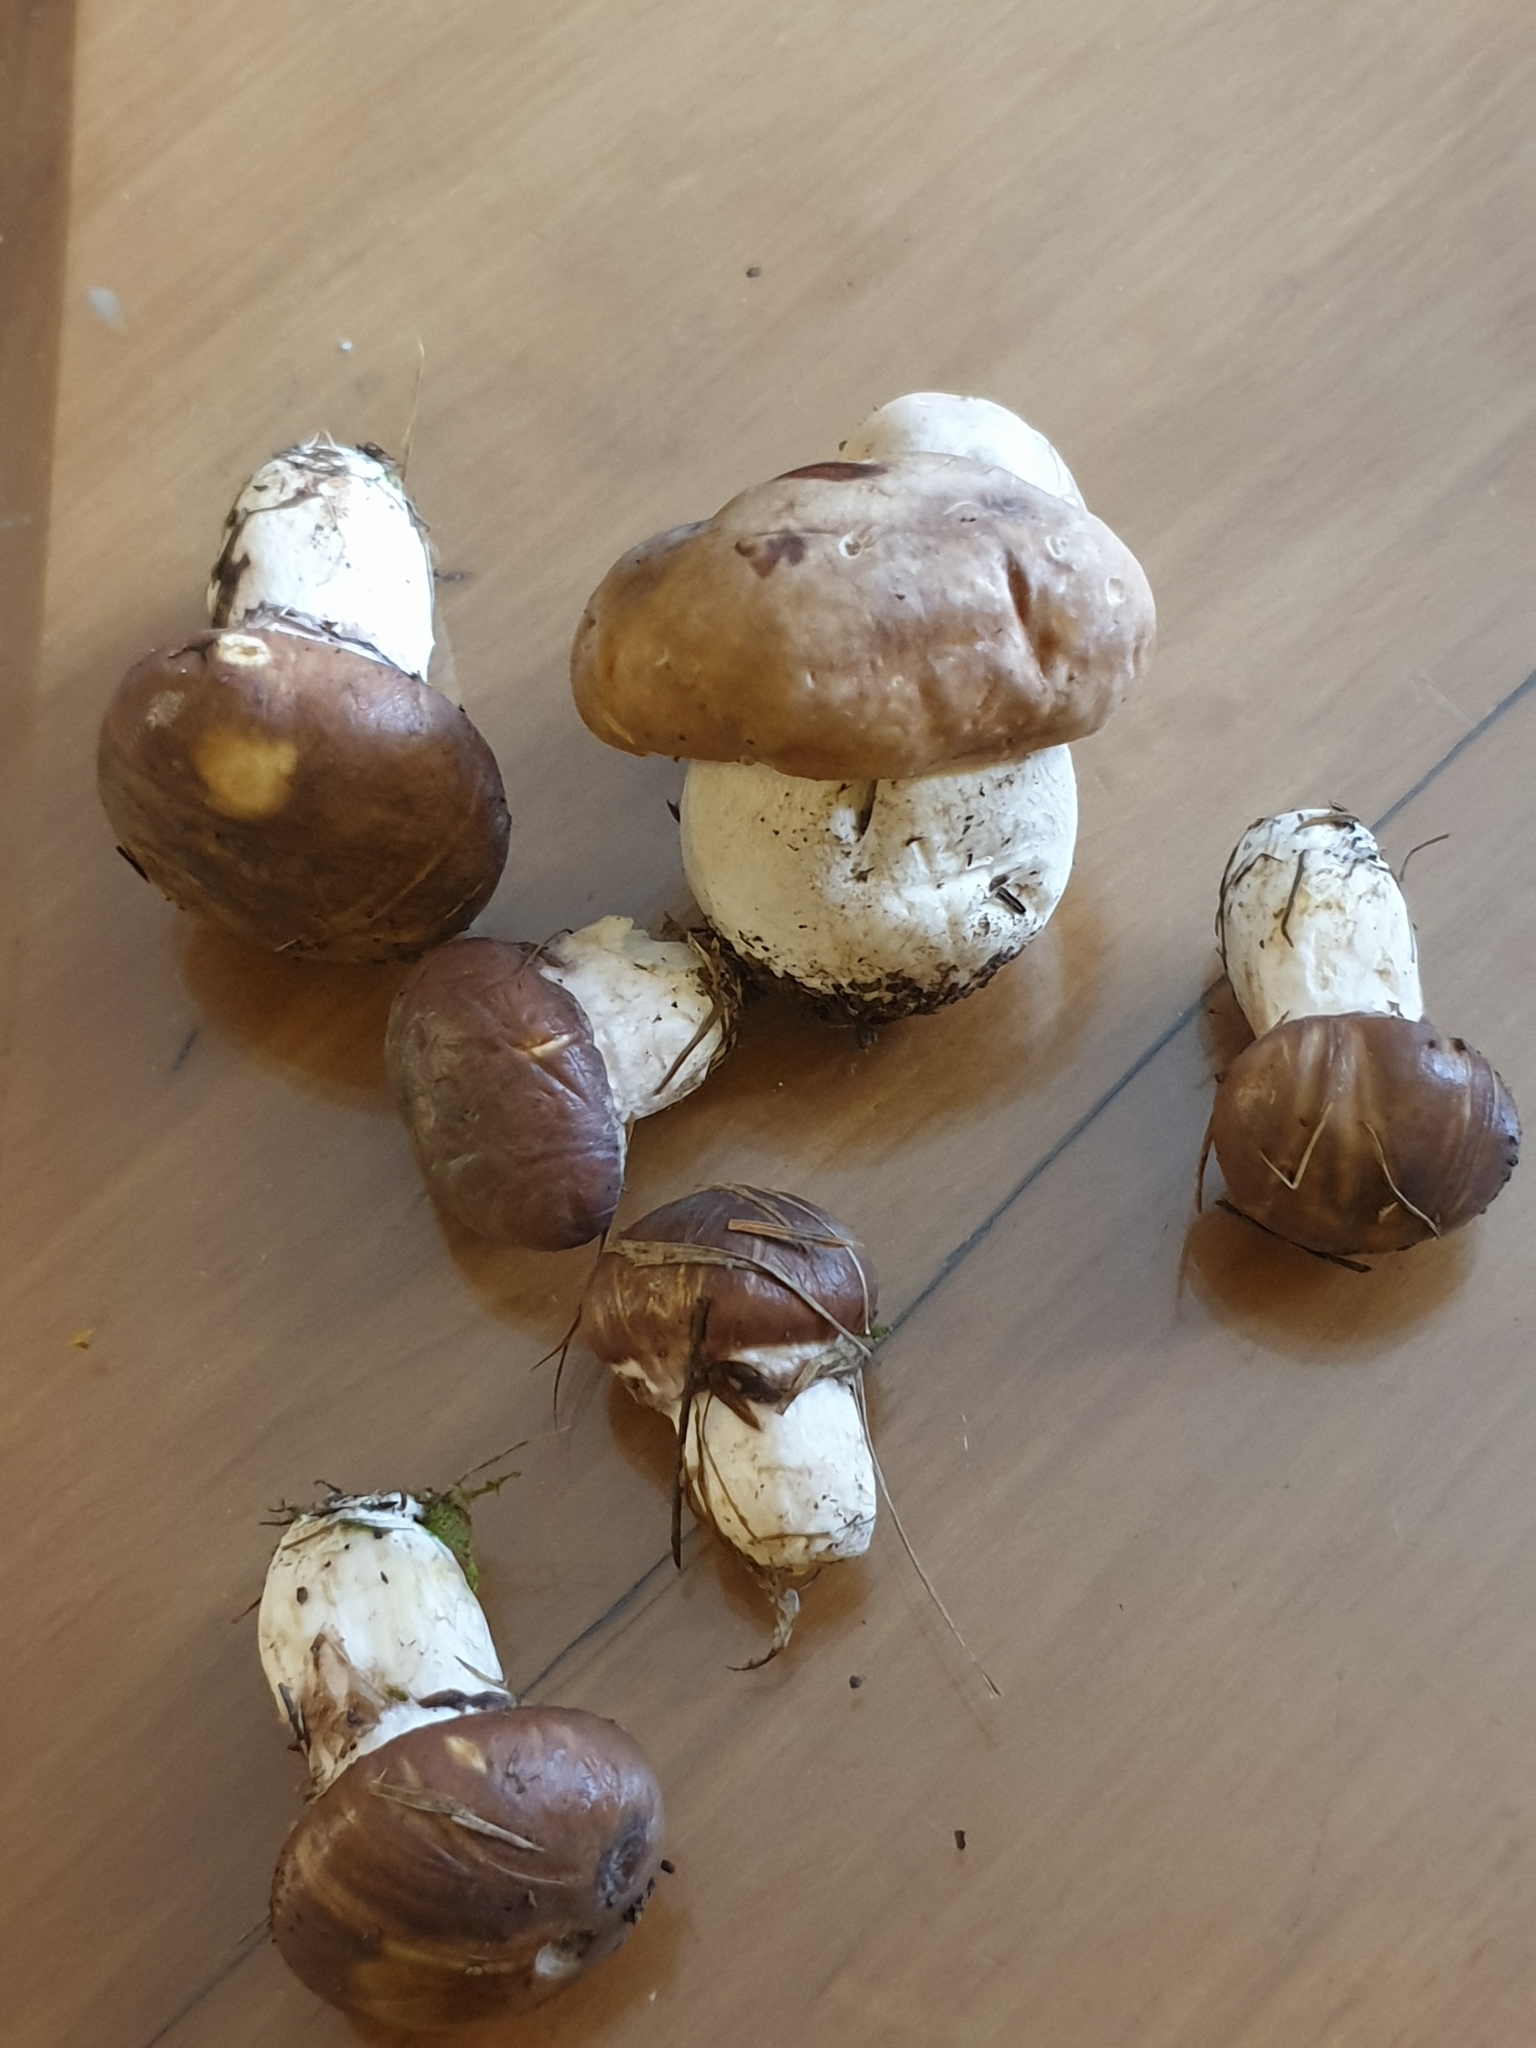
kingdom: Fungi
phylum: Basidiomycota
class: Agaricomycetes
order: Boletales
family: Boletaceae
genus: Boletus
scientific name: Boletus edulis
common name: Cep
